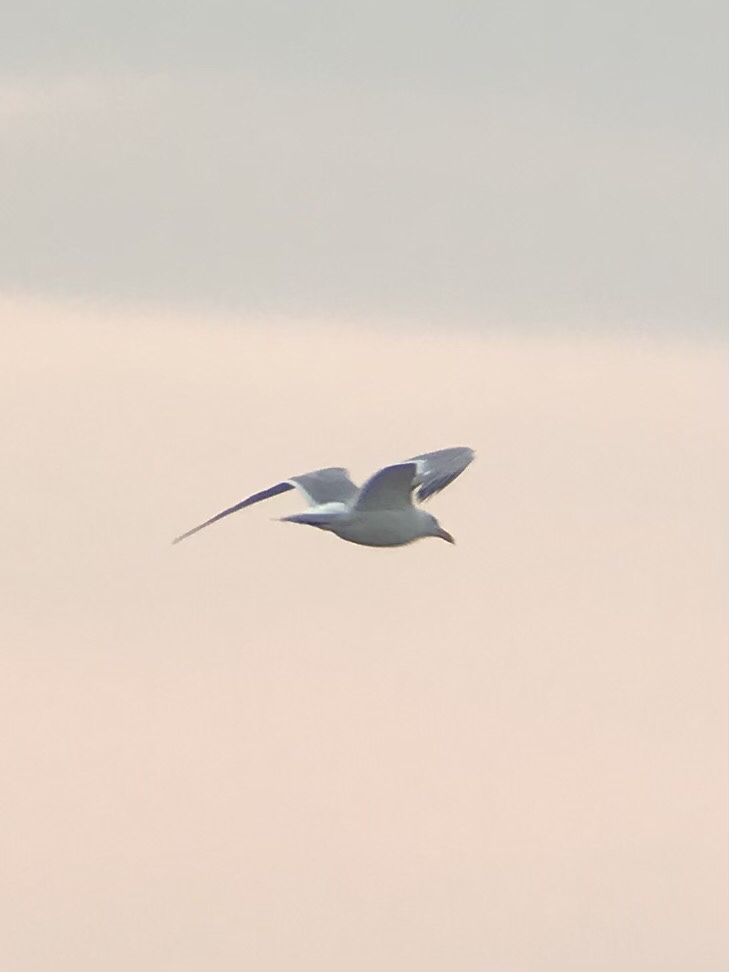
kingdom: Animalia
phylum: Chordata
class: Aves
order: Charadriiformes
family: Laridae
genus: Larus
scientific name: Larus argentatus
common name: Herring gull
